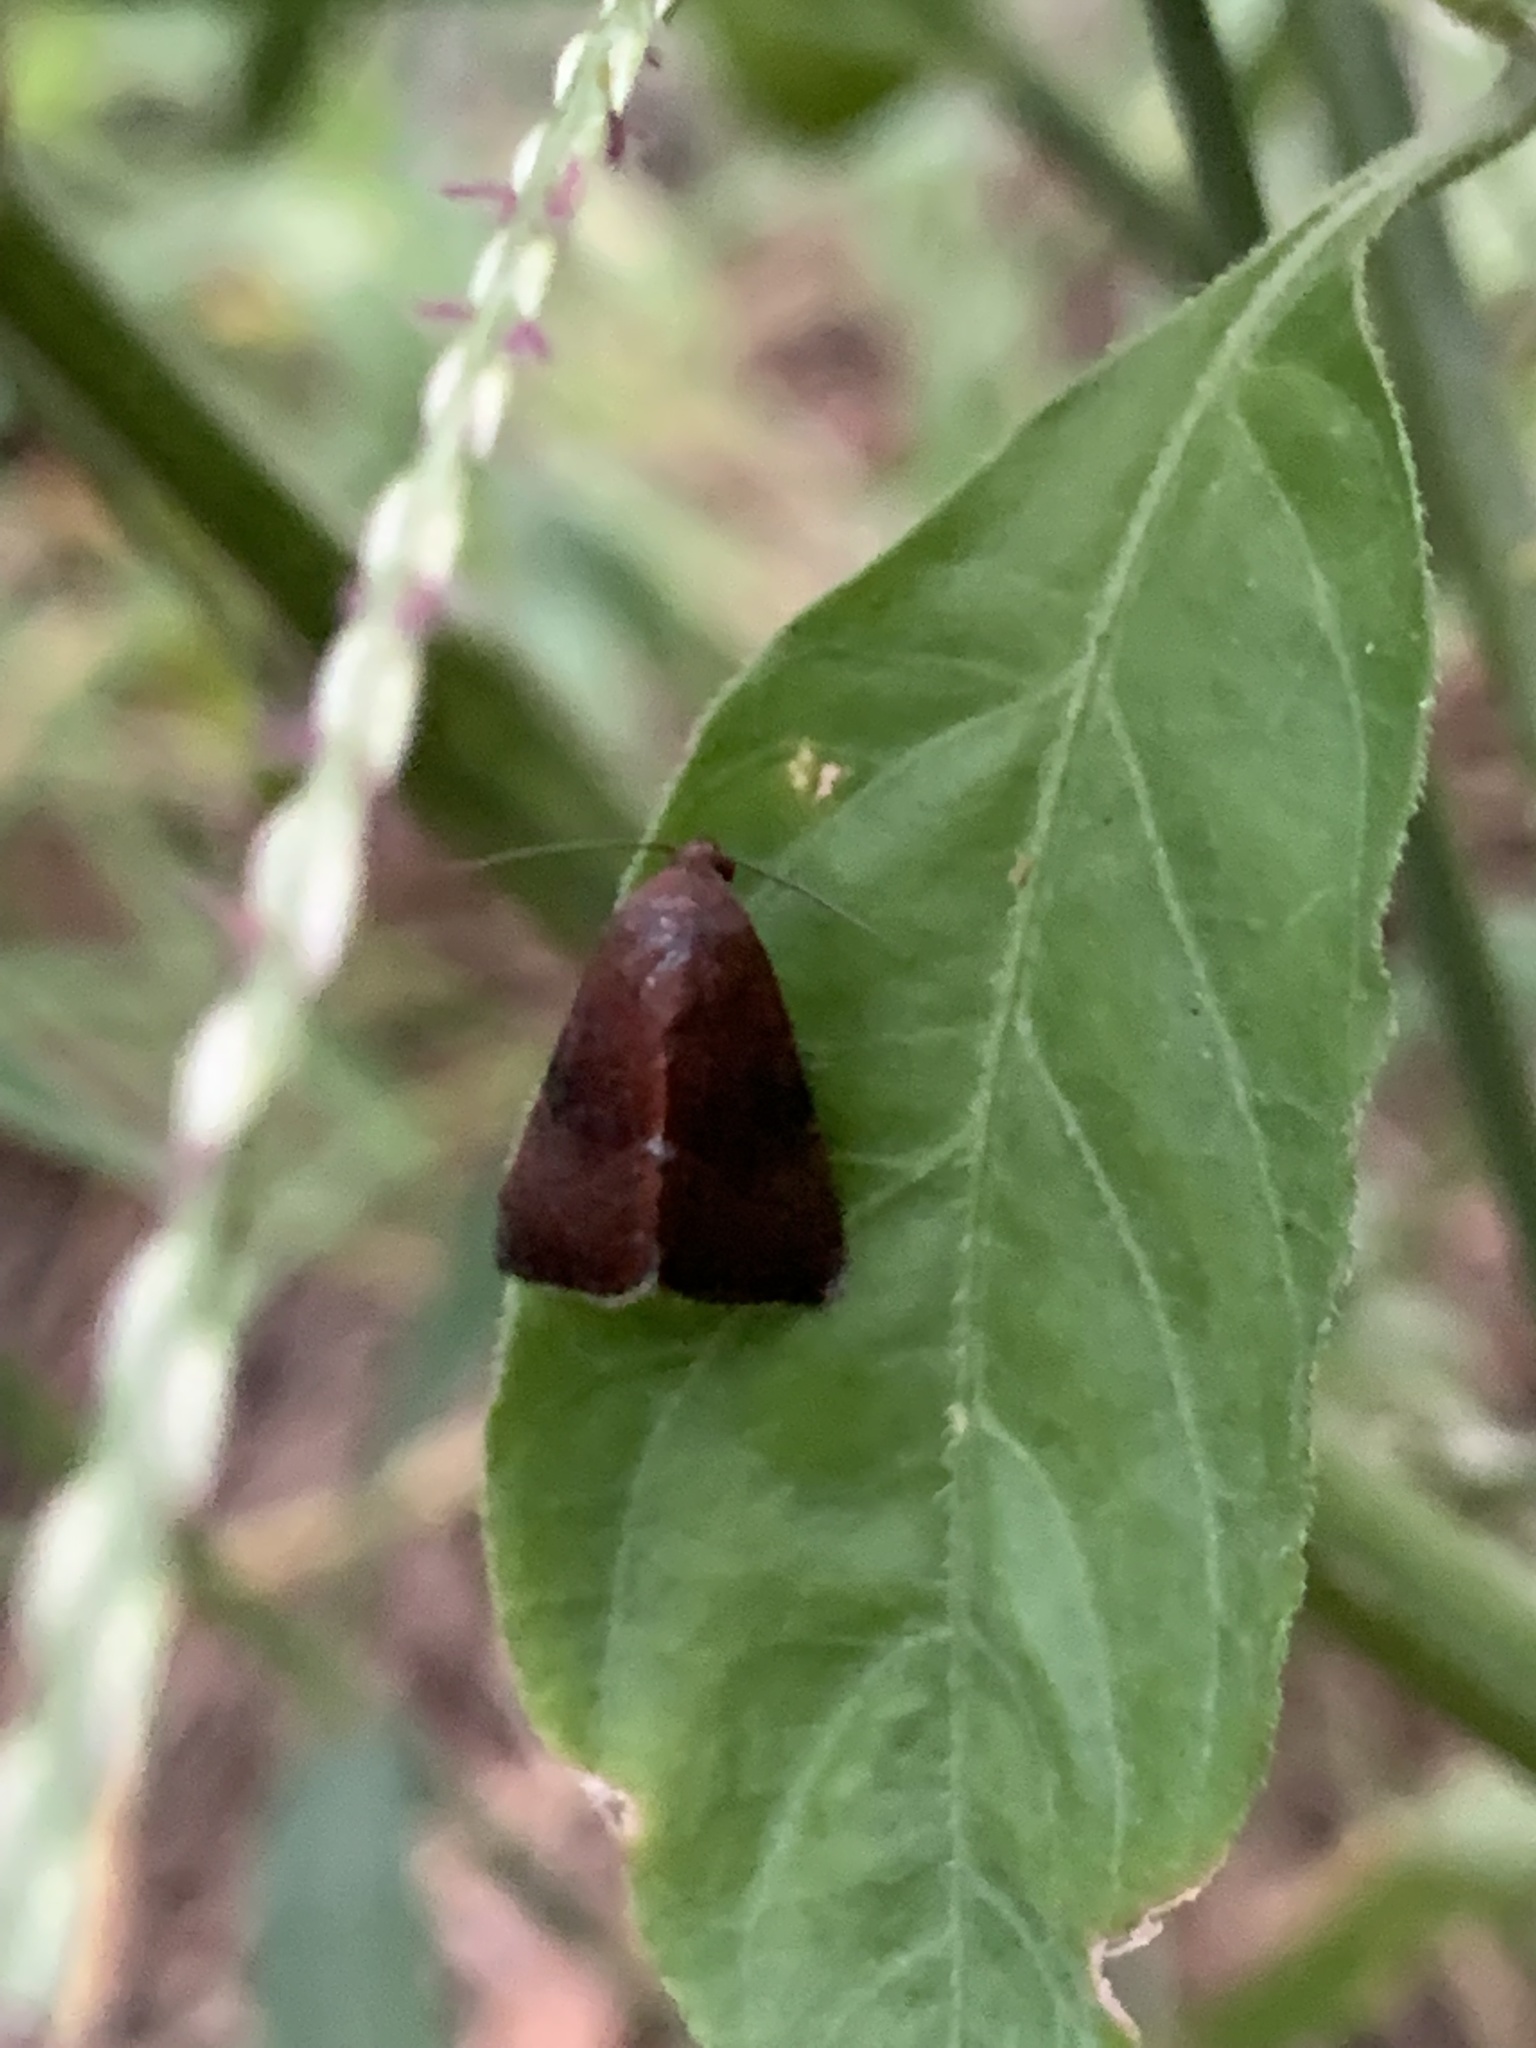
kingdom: Animalia
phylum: Arthropoda
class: Insecta
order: Lepidoptera
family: Noctuidae
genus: Galgula
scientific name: Galgula partita
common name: Wedgeling
